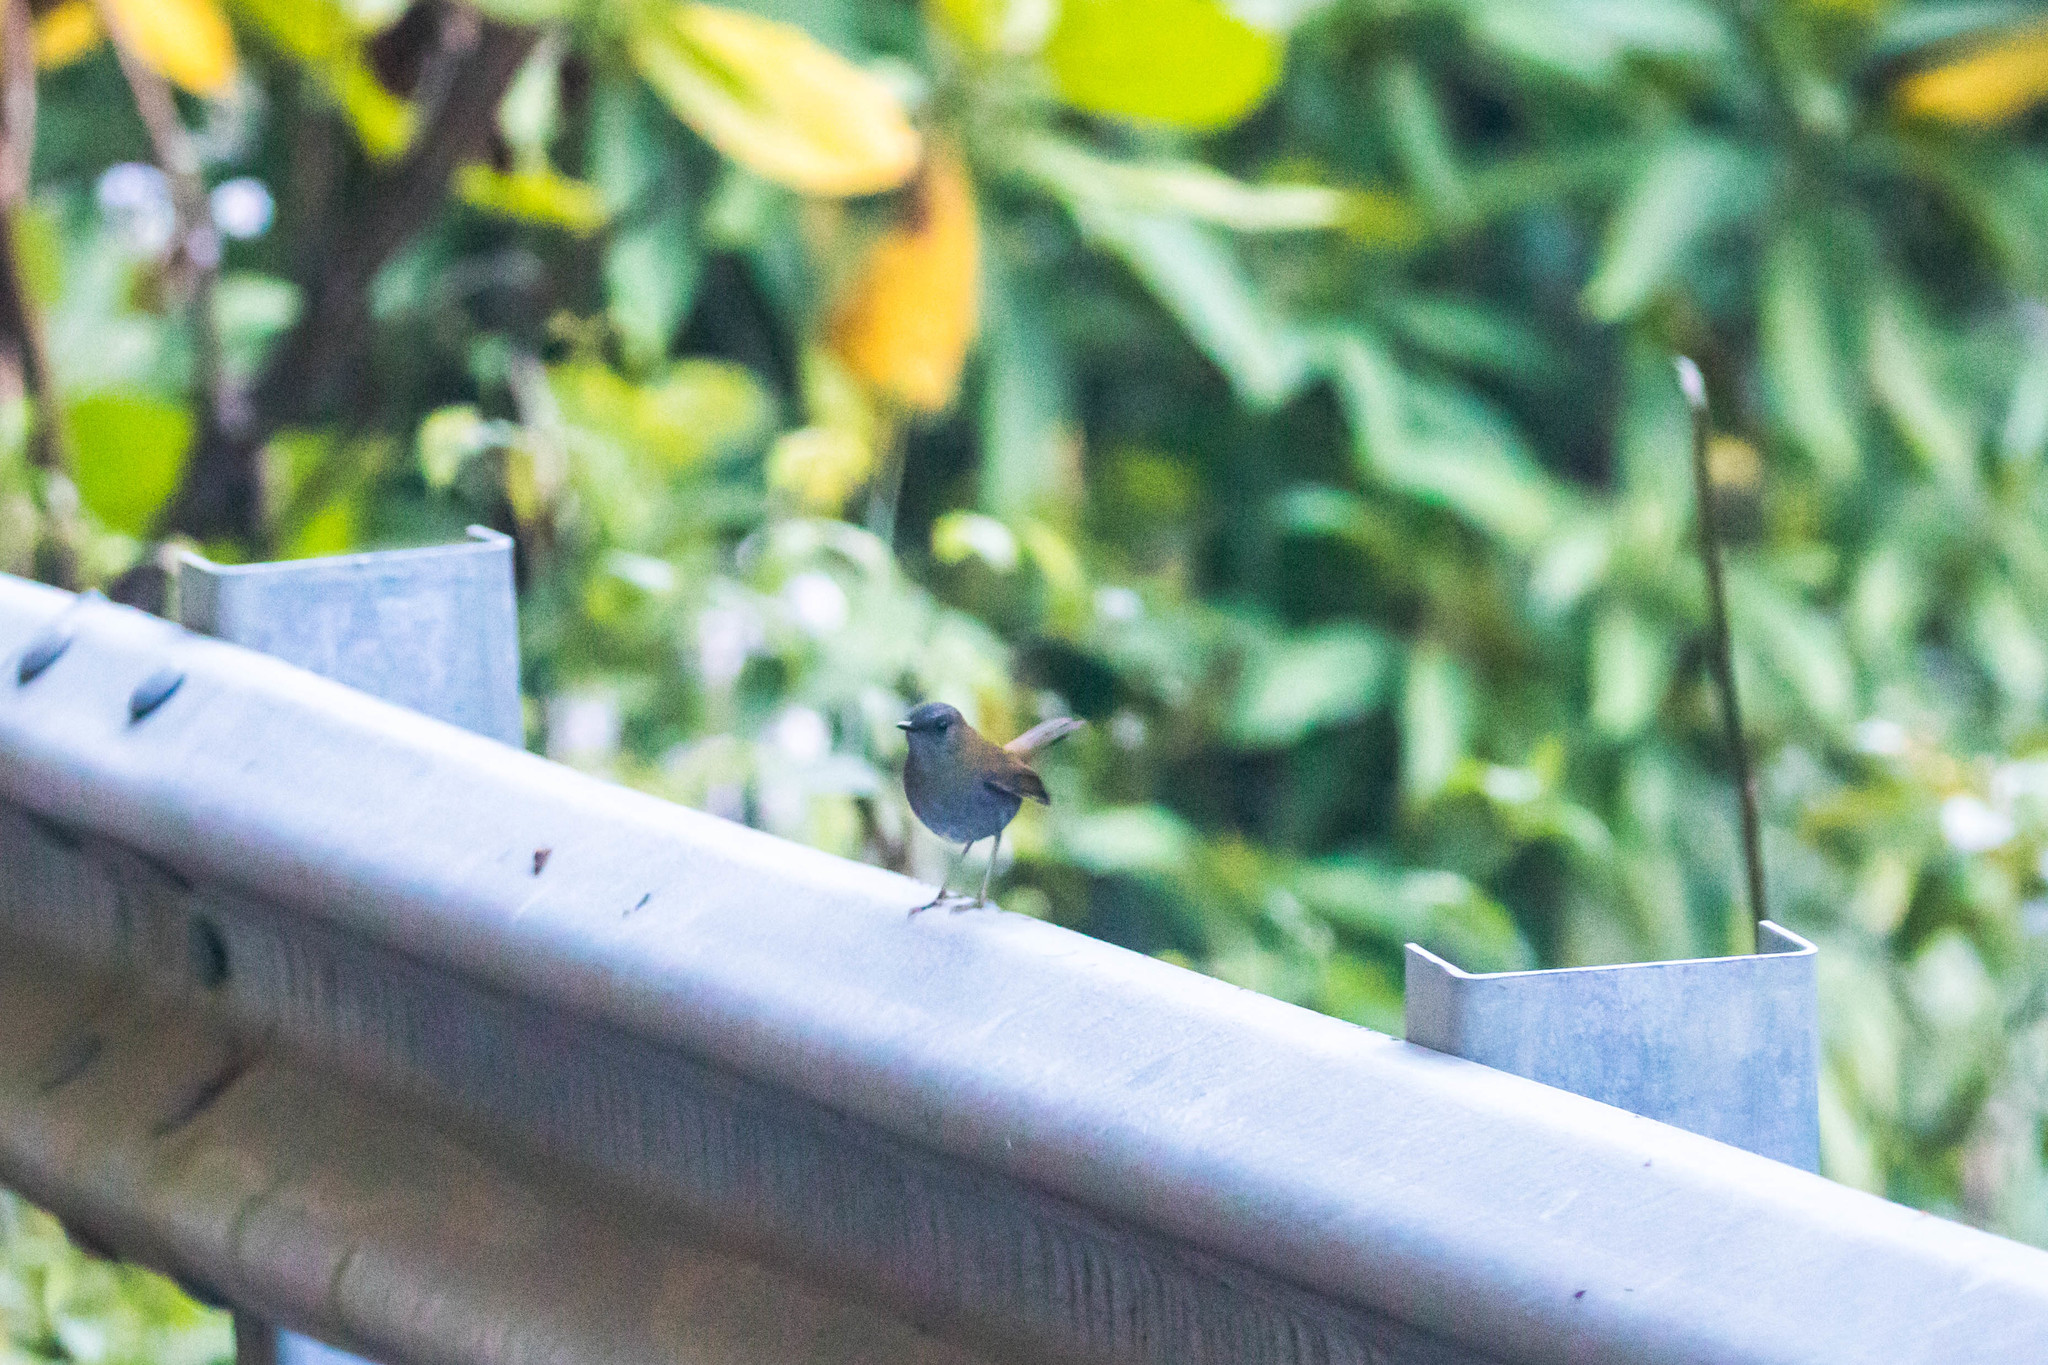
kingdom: Animalia
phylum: Chordata
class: Aves
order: Passeriformes
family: Turdidae
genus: Catharus
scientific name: Catharus gracilirostris
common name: Black-billed nightingale-thrush
